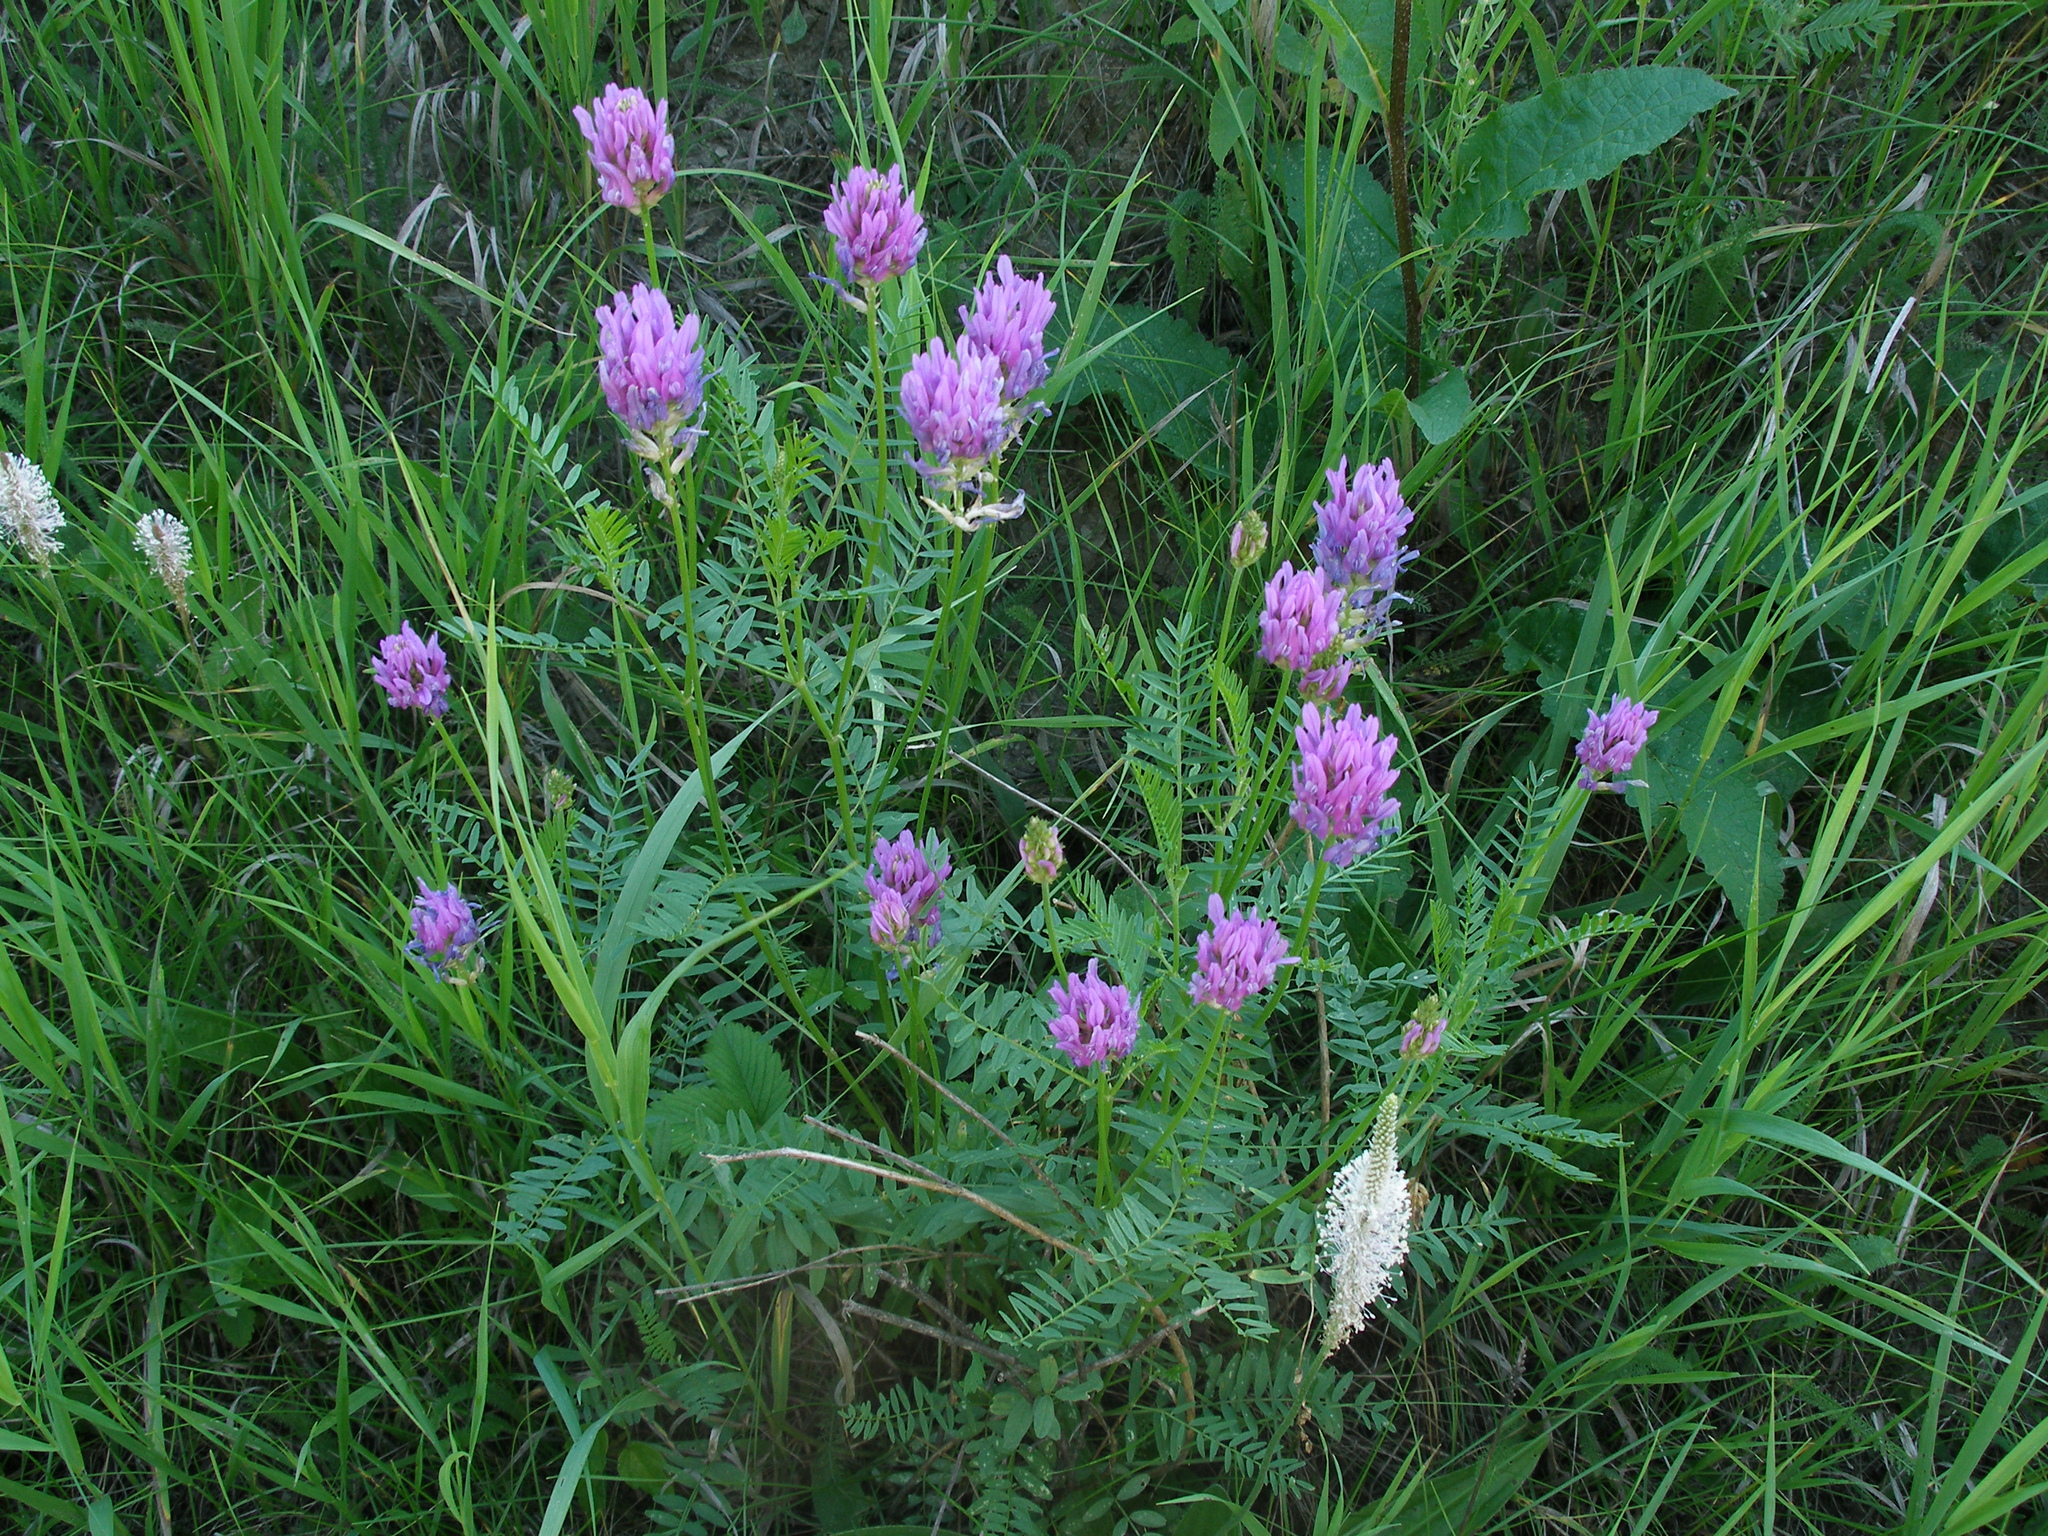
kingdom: Plantae
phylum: Tracheophyta
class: Magnoliopsida
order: Fabales
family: Fabaceae
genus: Astragalus
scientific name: Astragalus onobrychis
